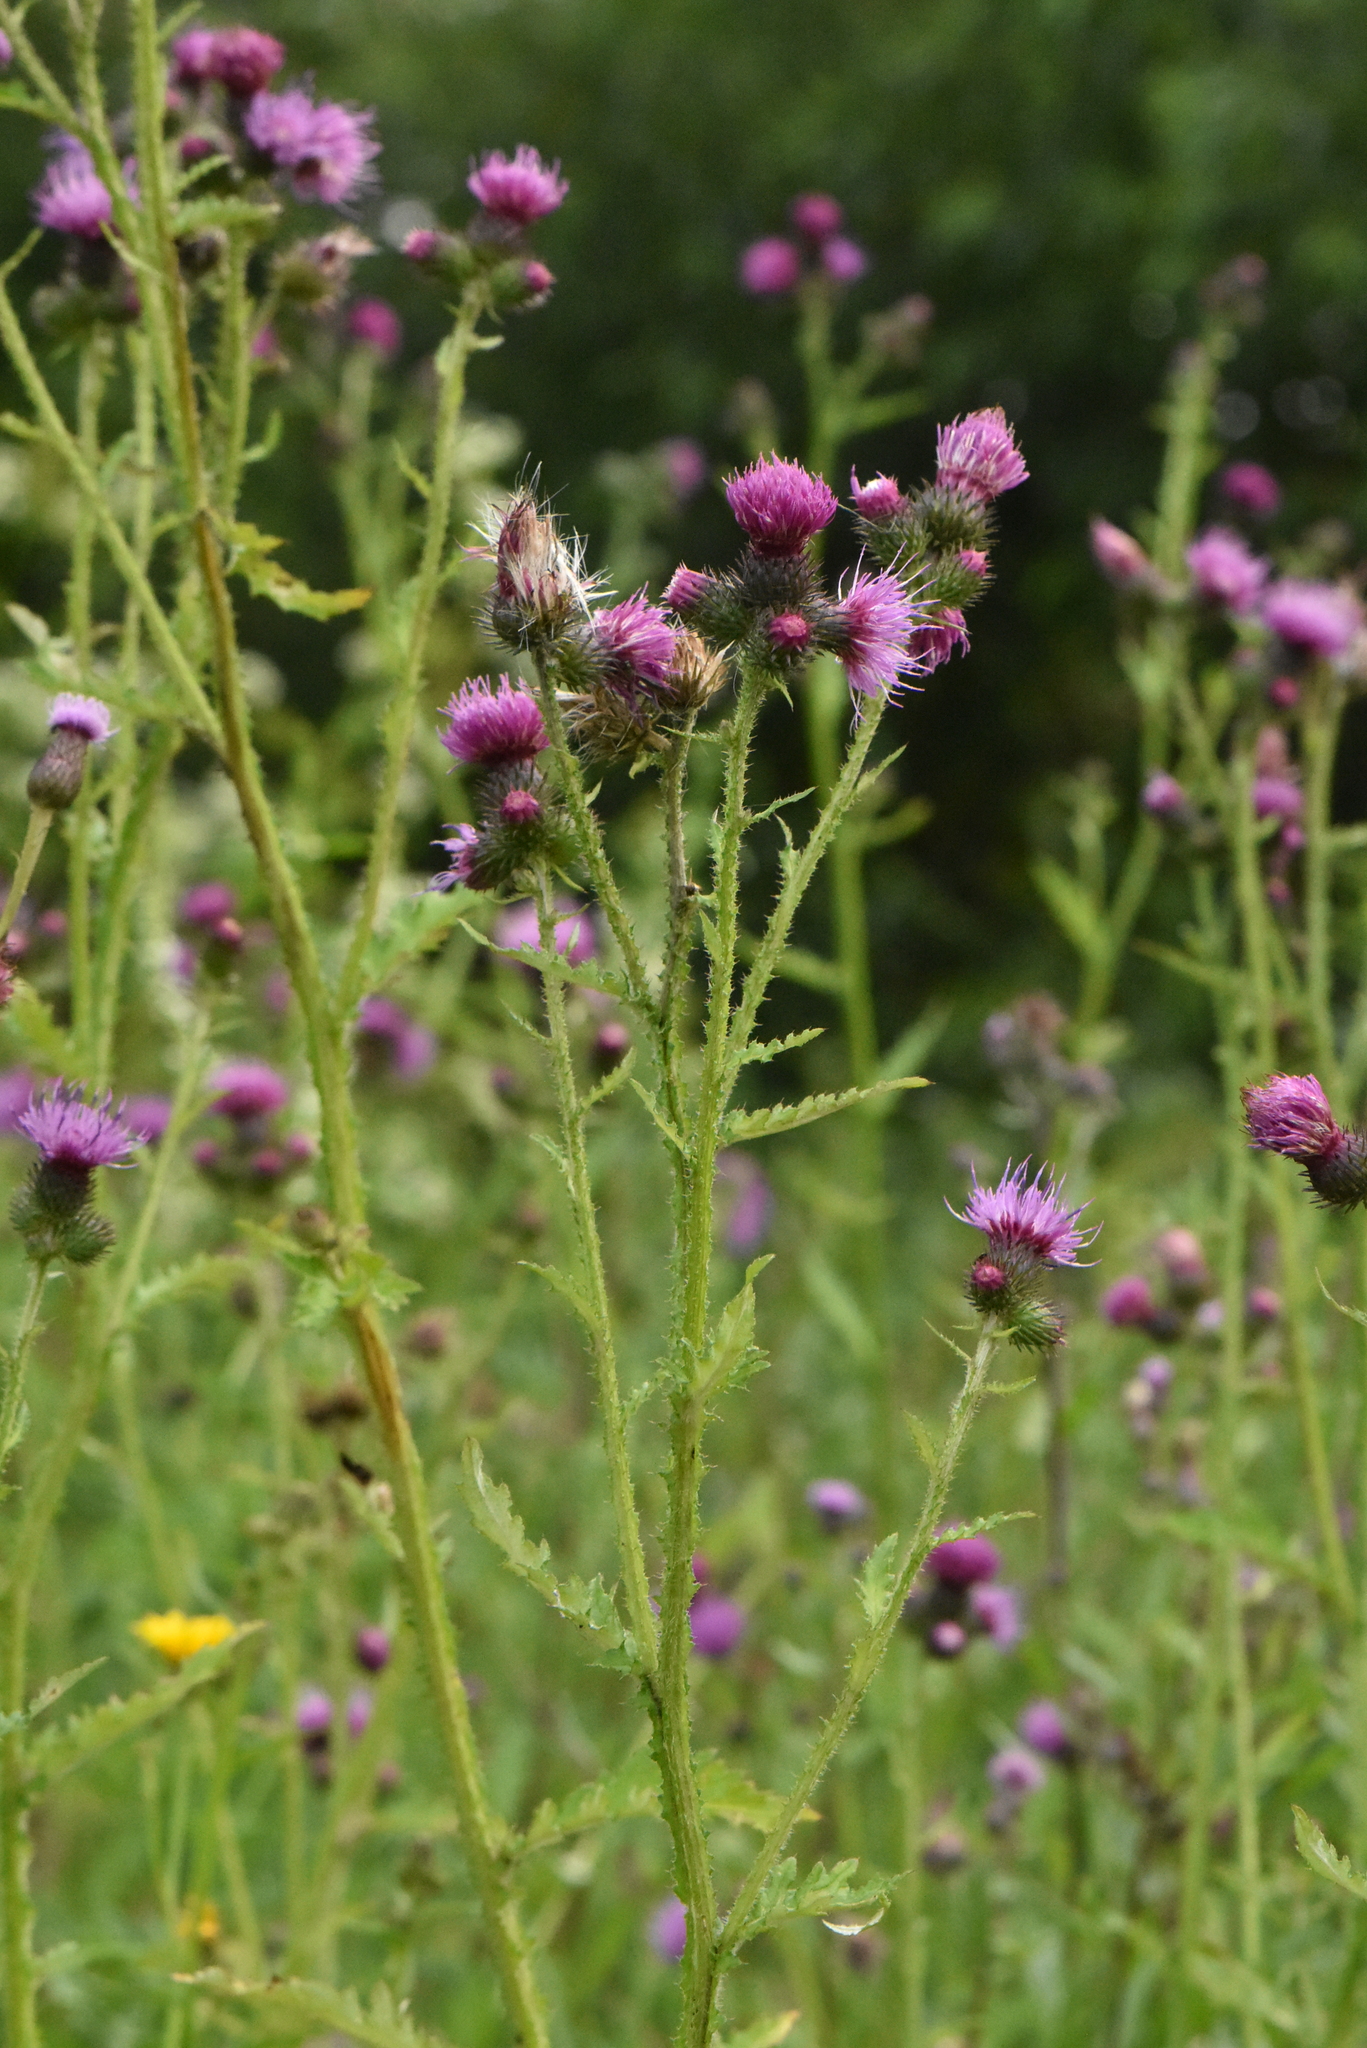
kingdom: Plantae
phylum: Tracheophyta
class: Magnoliopsida
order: Asterales
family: Asteraceae
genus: Carduus
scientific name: Carduus crispus
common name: Welted thistle
